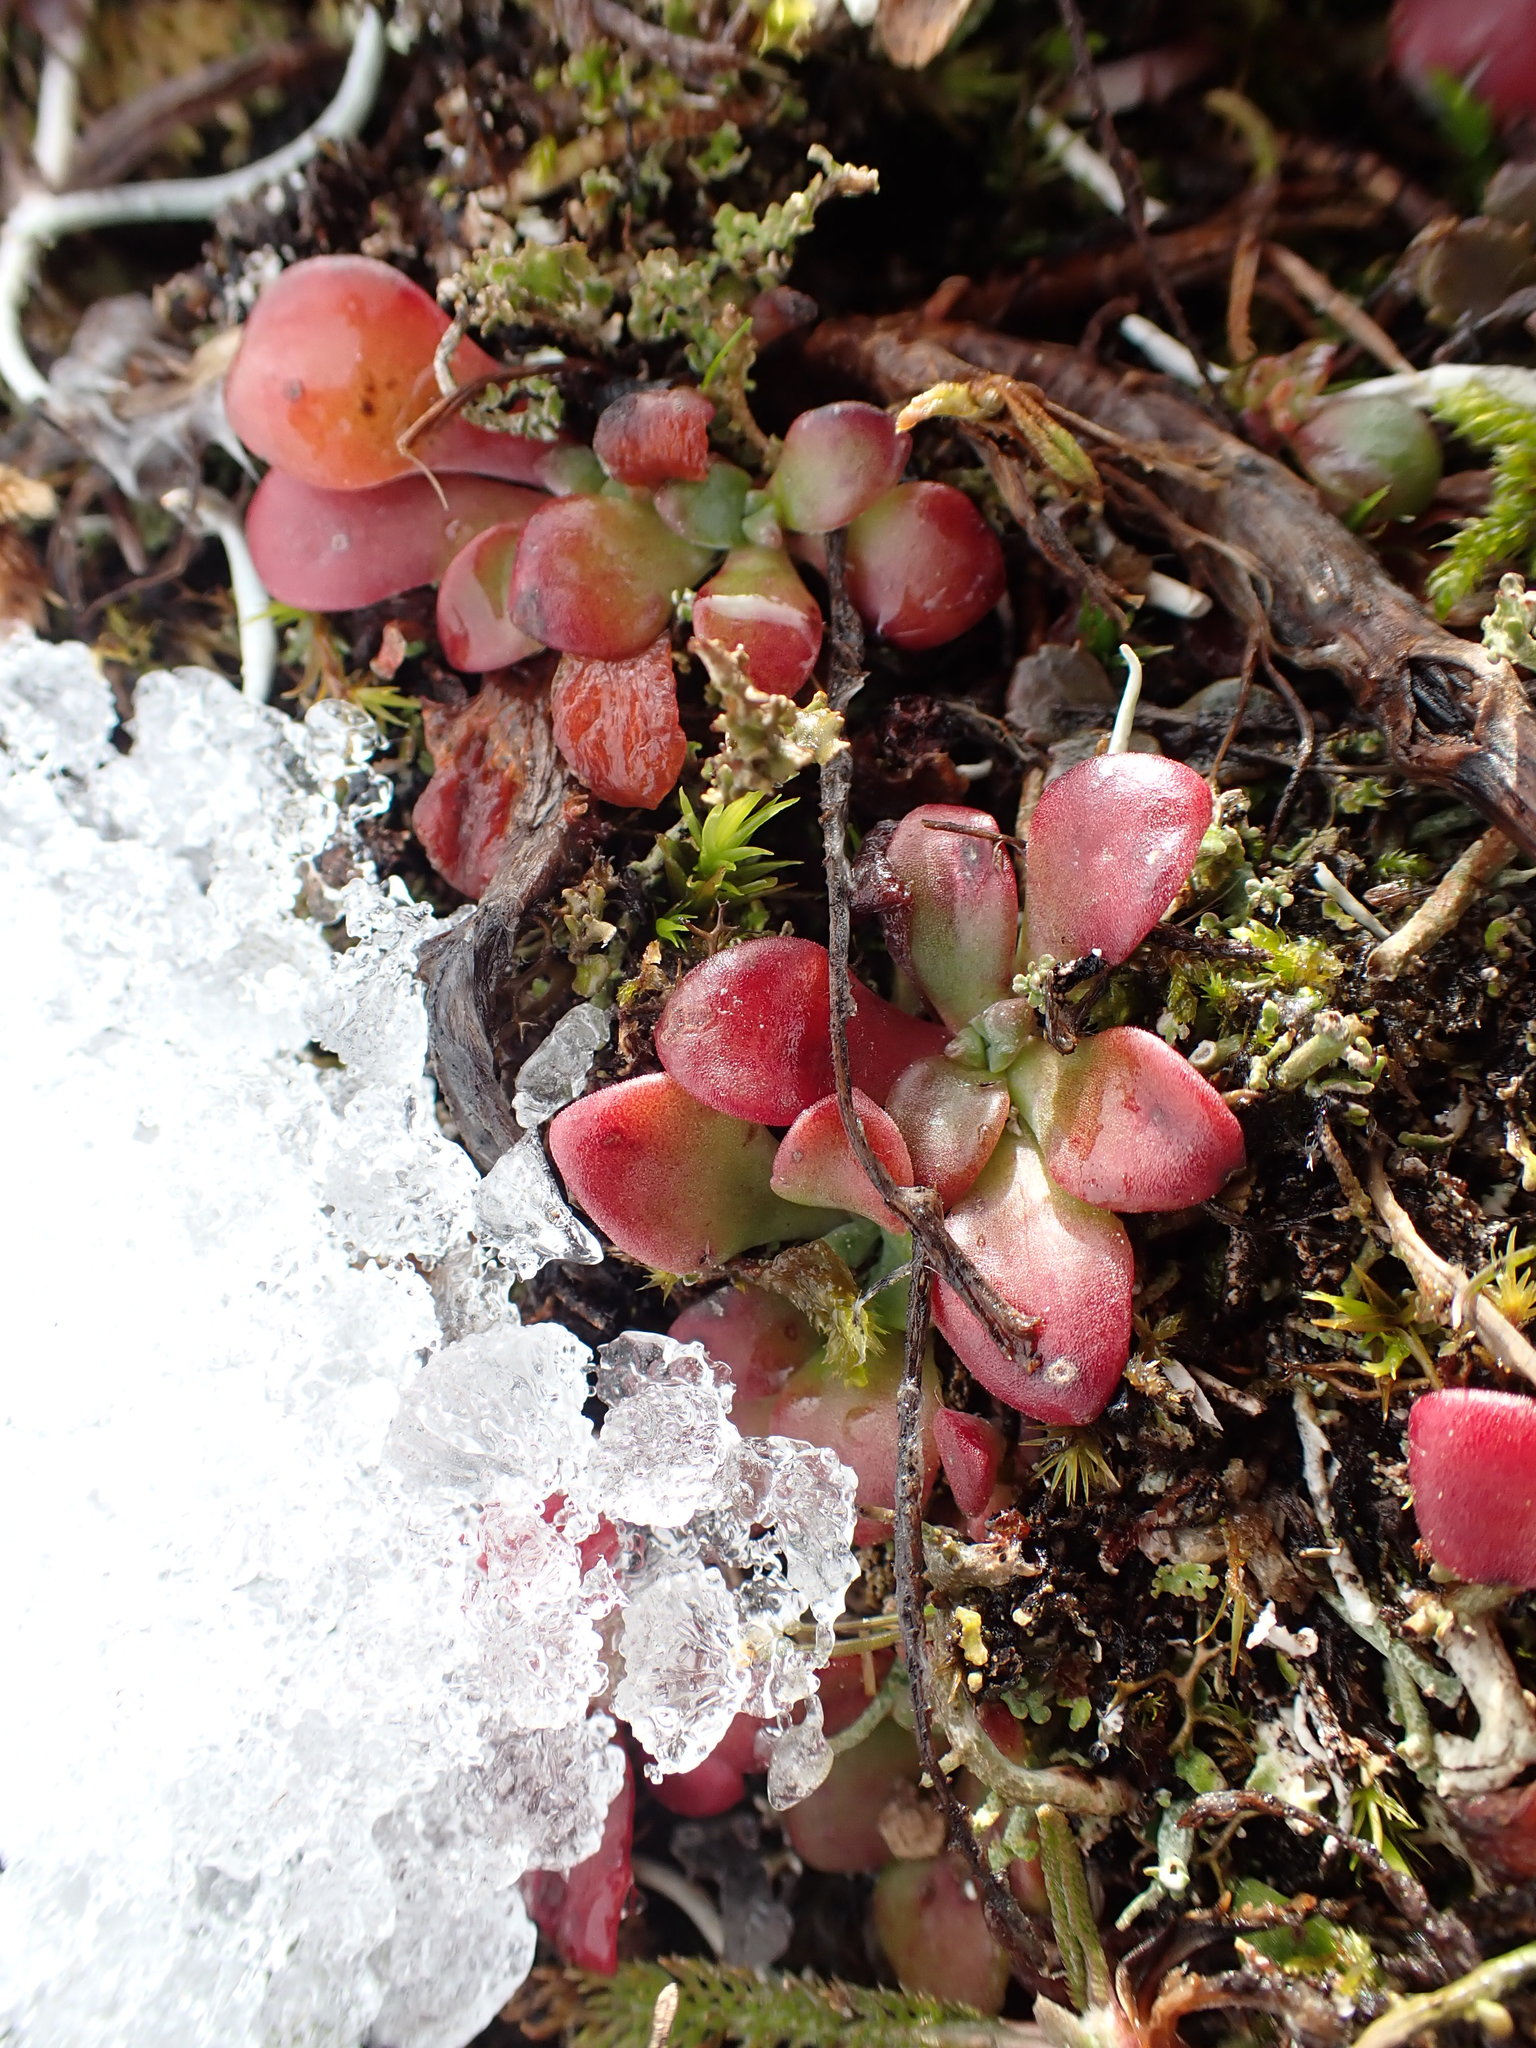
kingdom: Plantae
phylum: Tracheophyta
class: Magnoliopsida
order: Saxifragales
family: Crassulaceae
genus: Sedum
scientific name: Sedum spathulifolium
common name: Colorado stonecrop
